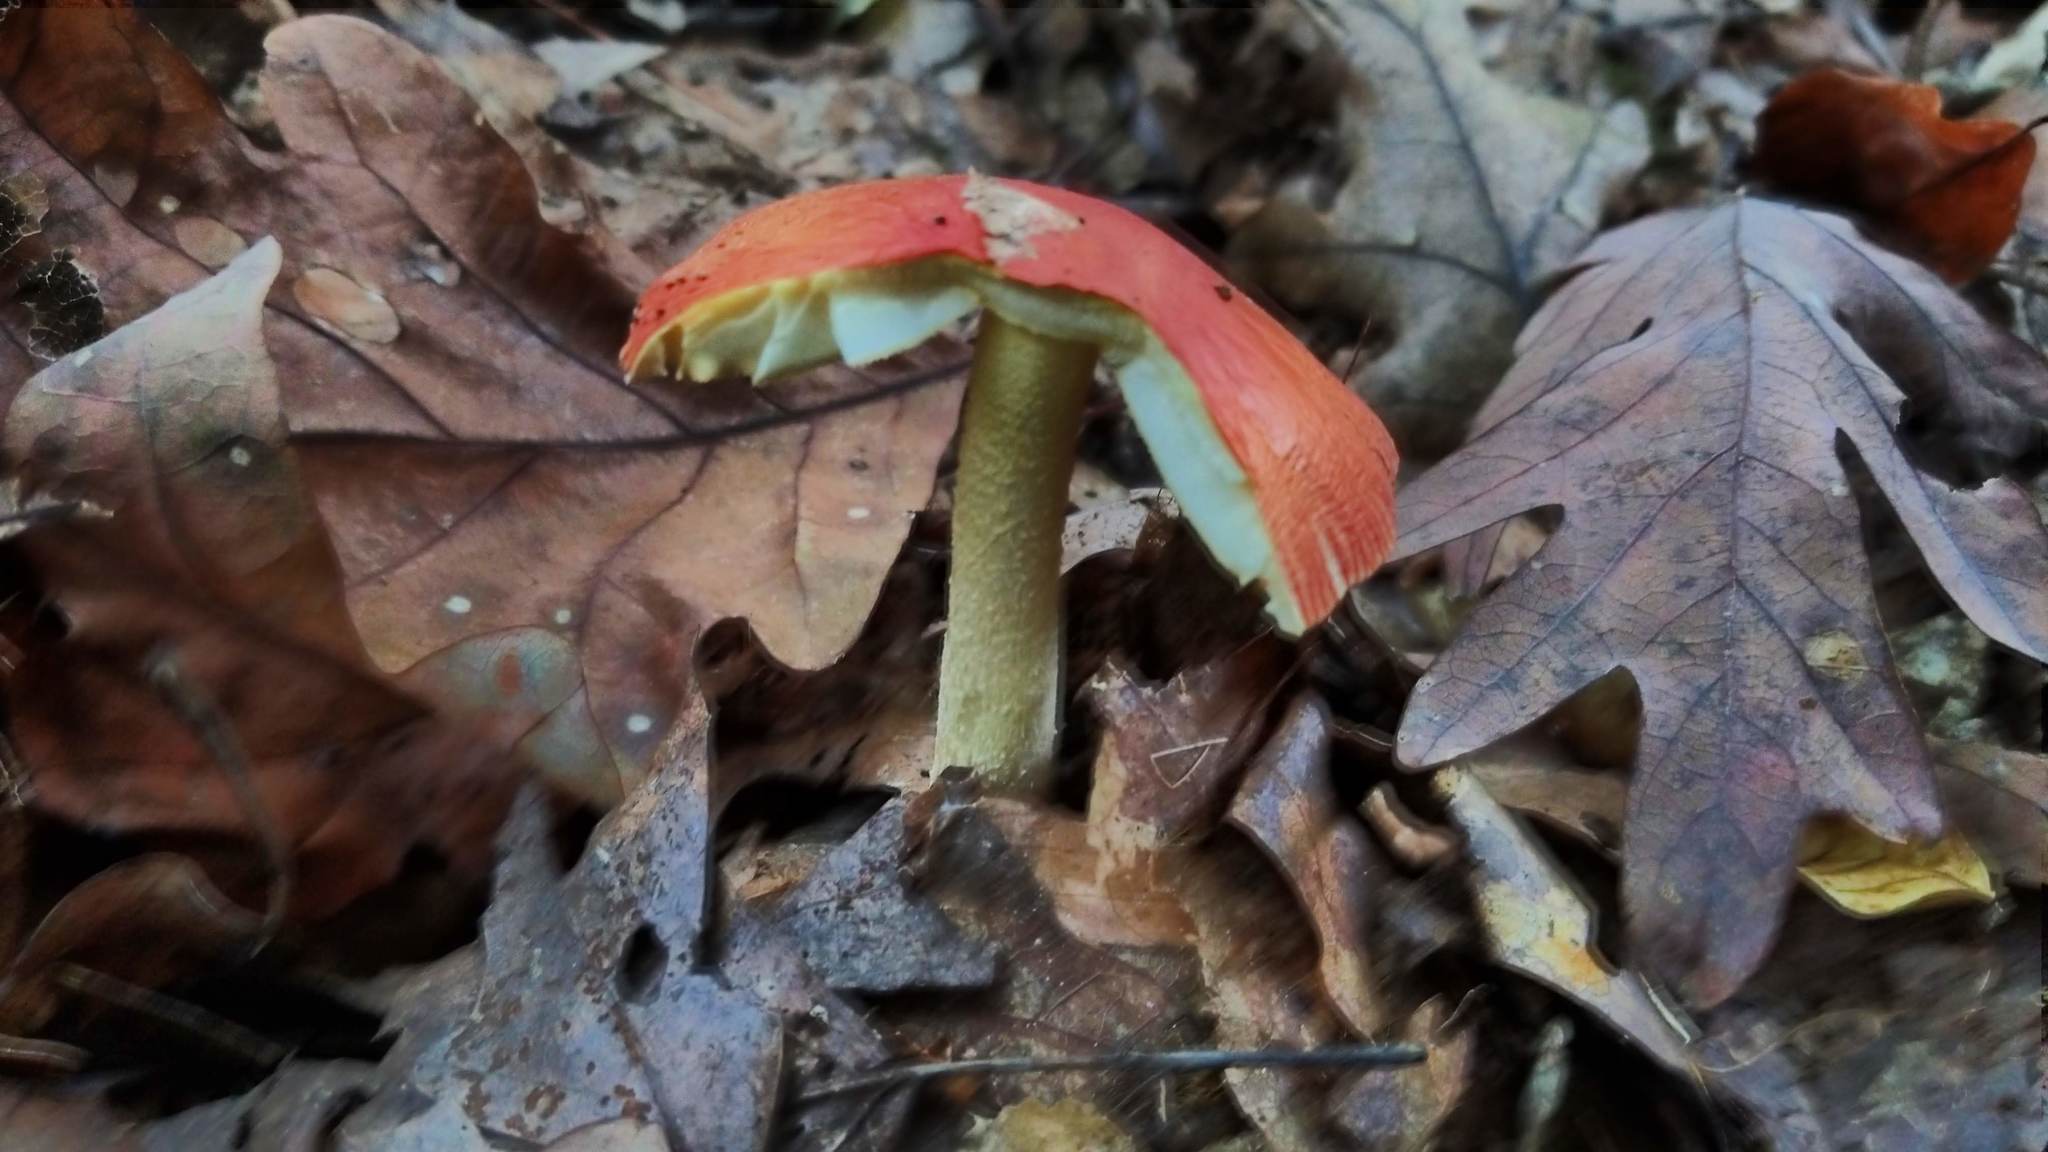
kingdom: Fungi
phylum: Basidiomycota
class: Agaricomycetes
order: Agaricales
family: Amanitaceae
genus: Amanita
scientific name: Amanita parcivolvata
